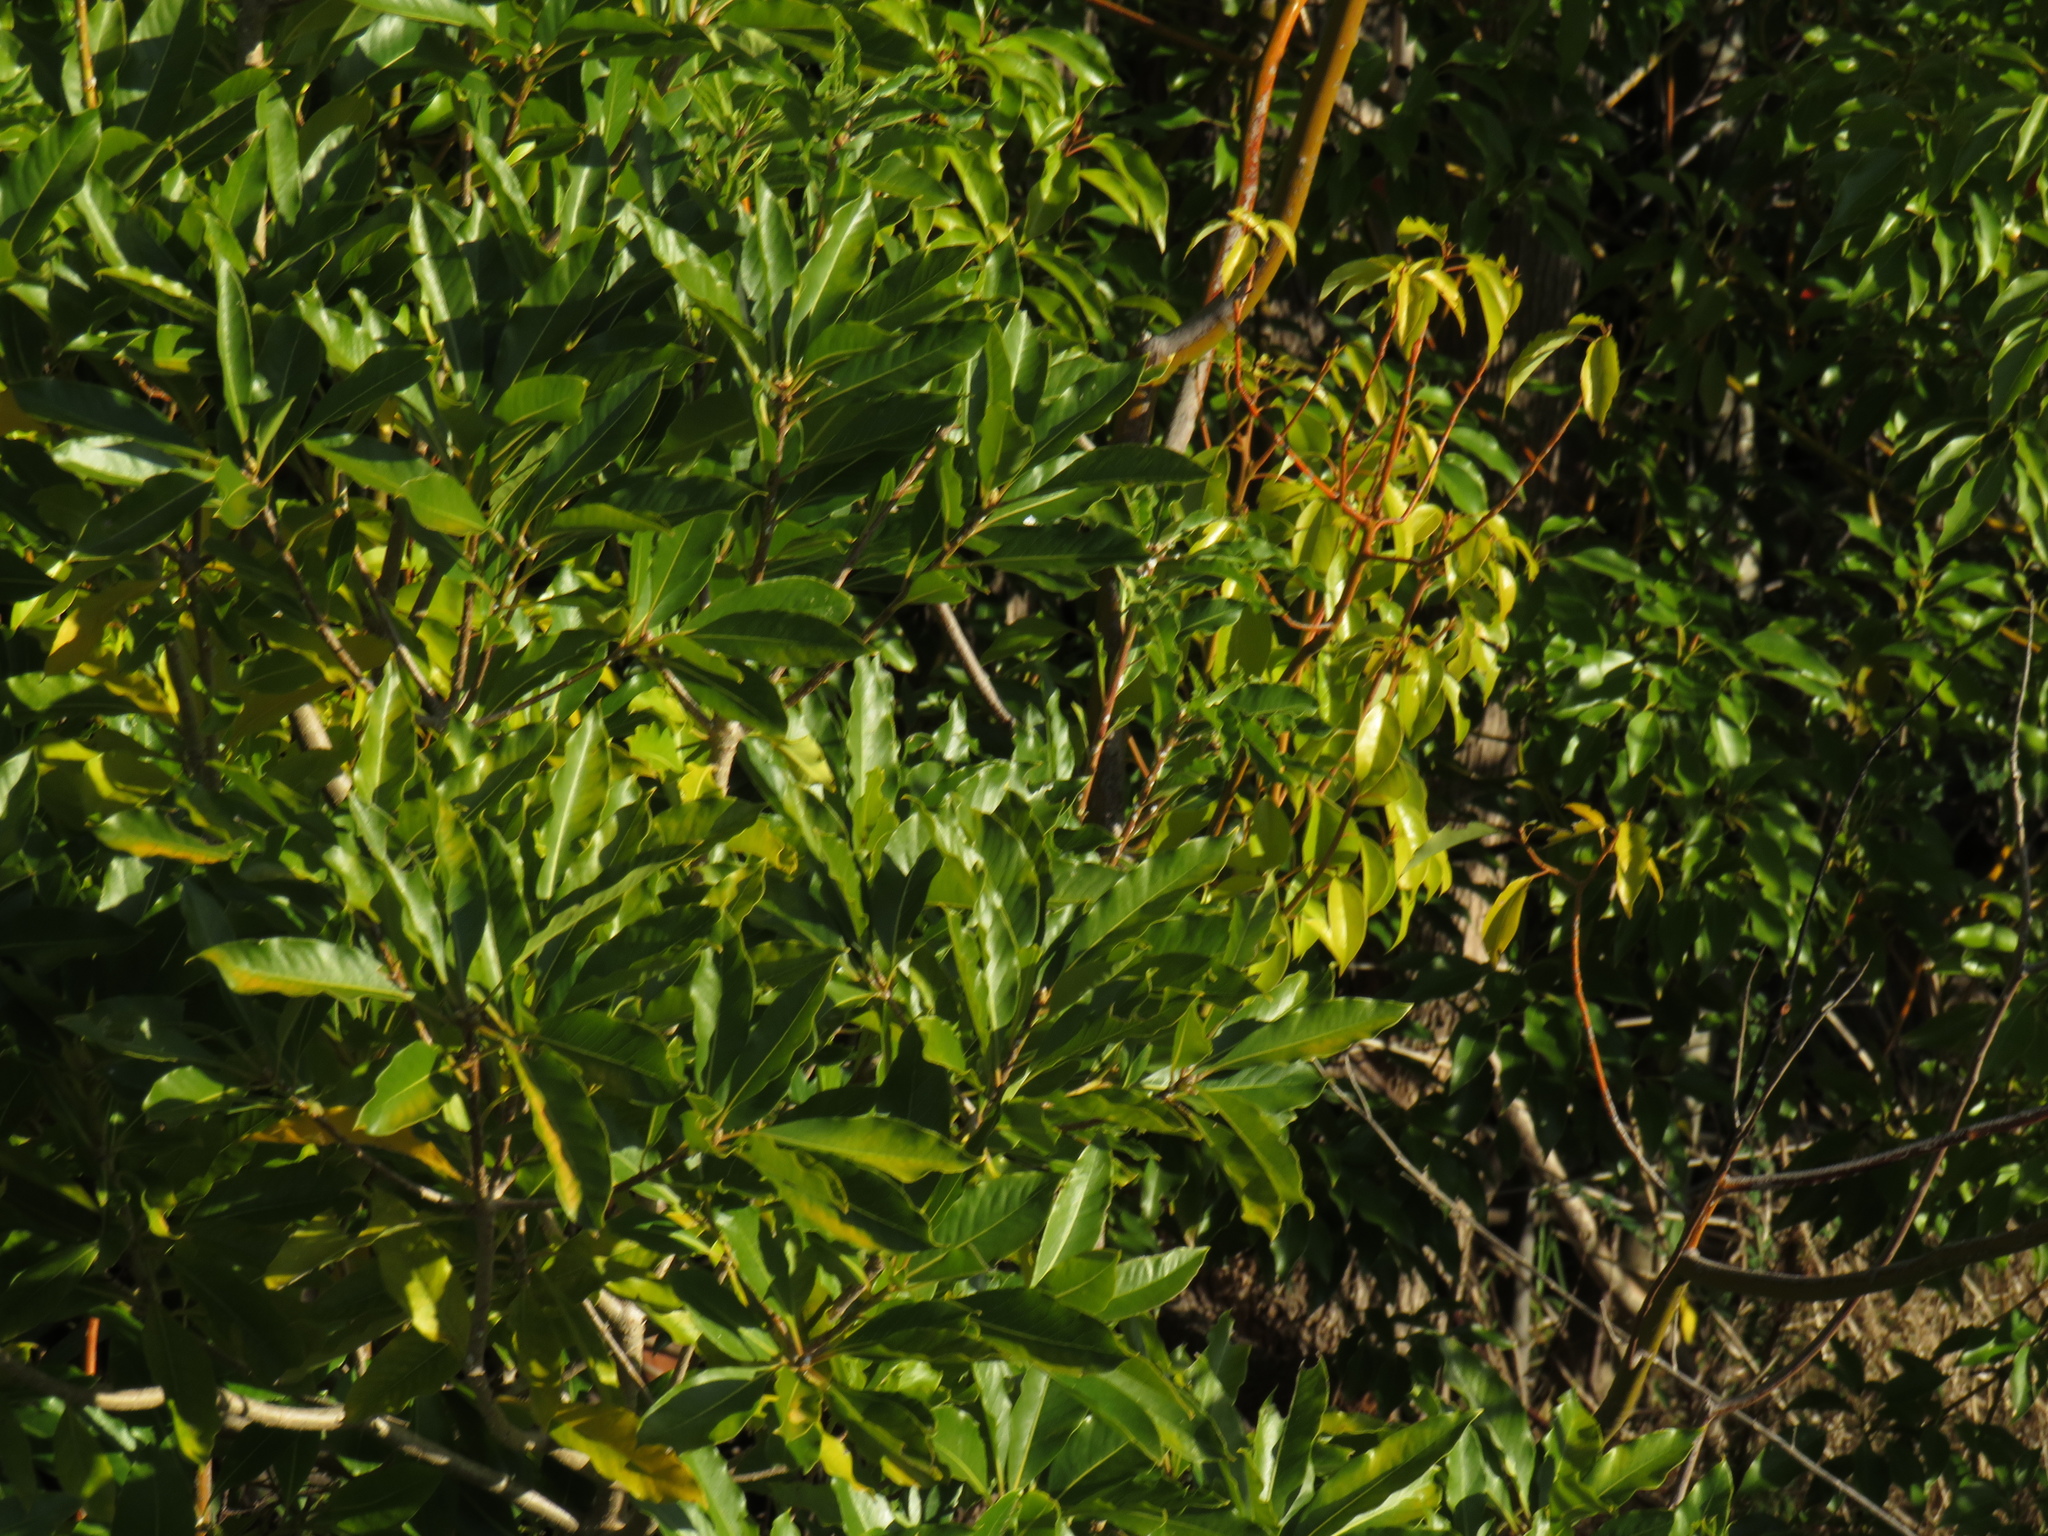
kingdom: Plantae
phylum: Tracheophyta
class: Magnoliopsida
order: Apiales
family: Pittosporaceae
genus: Pittosporum
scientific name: Pittosporum undulatum
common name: Australian cheesewood
